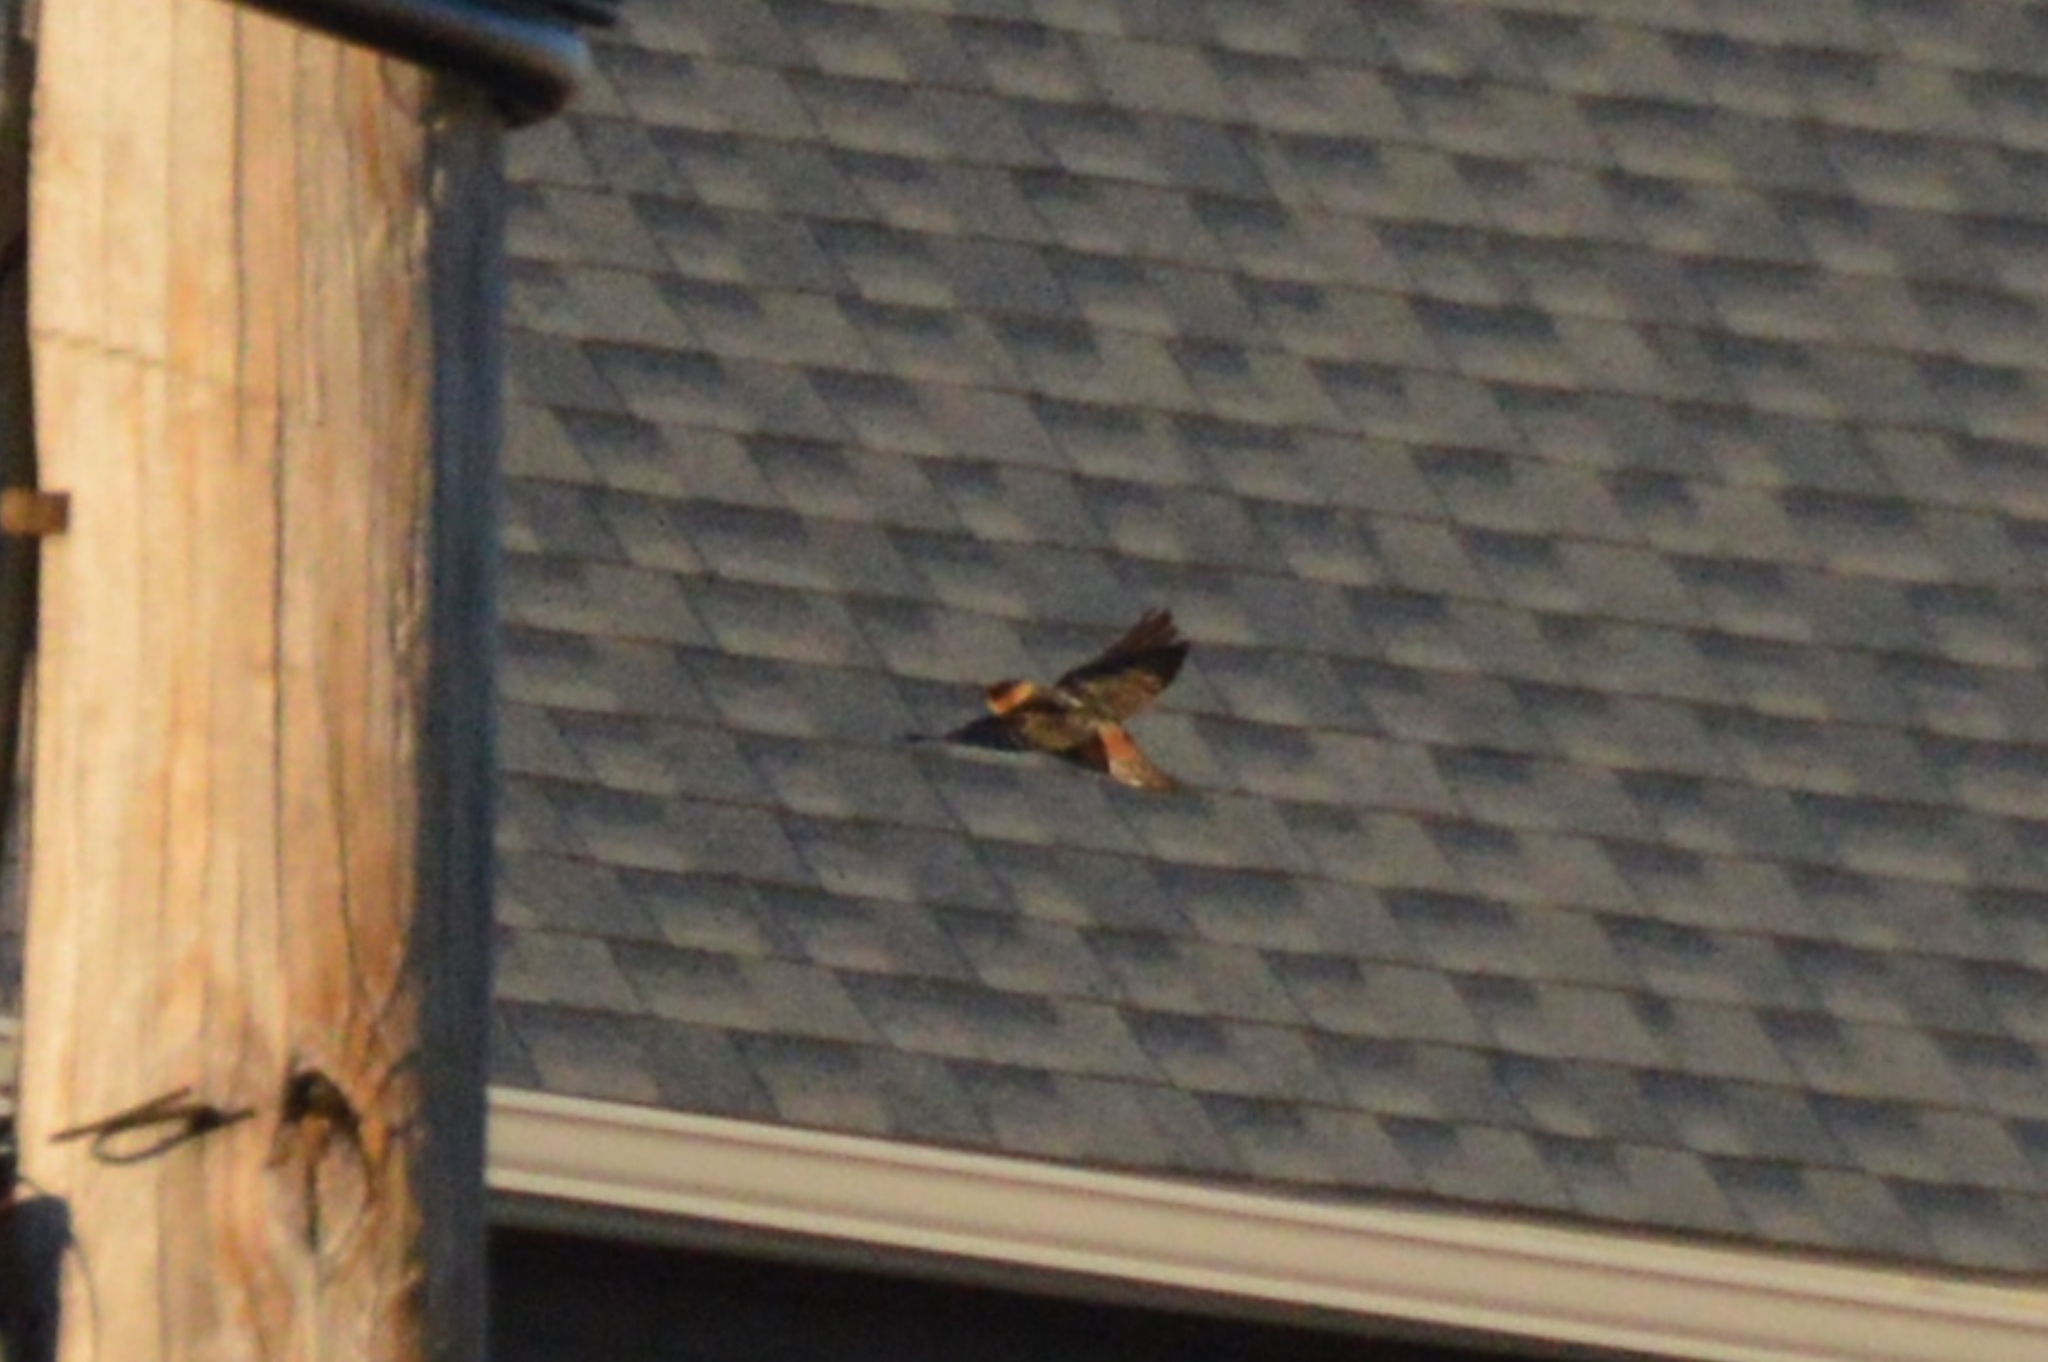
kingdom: Animalia
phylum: Chordata
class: Aves
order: Passeriformes
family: Hirundinidae
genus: Petrochelidon
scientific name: Petrochelidon fulva
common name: Cave swallow
